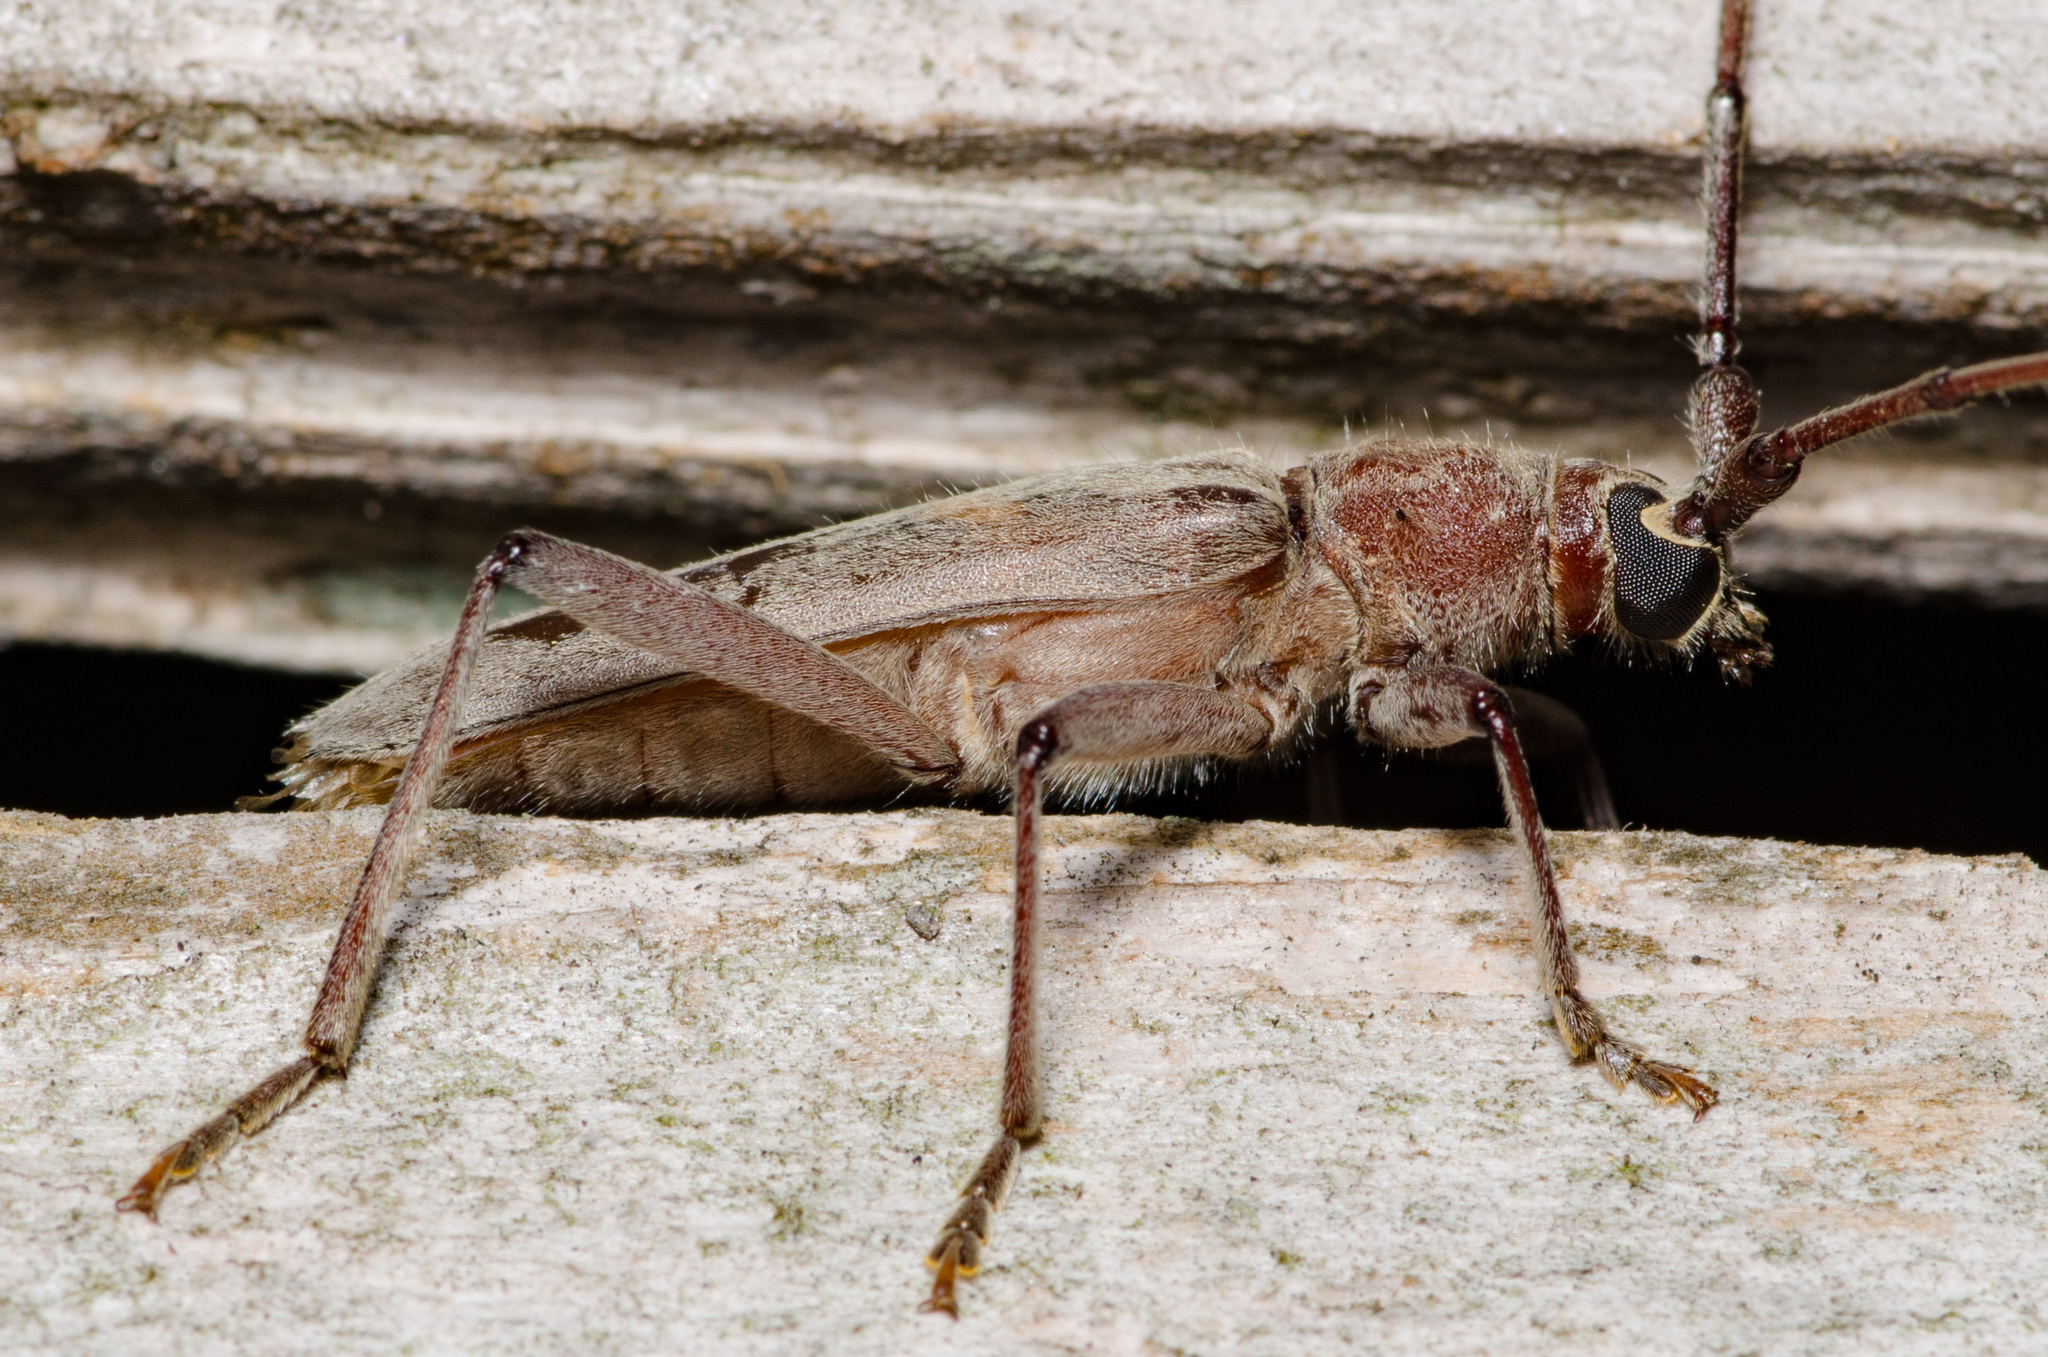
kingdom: Animalia
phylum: Arthropoda
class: Insecta
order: Coleoptera
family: Cerambycidae
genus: Knulliana
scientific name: Knulliana cincta
